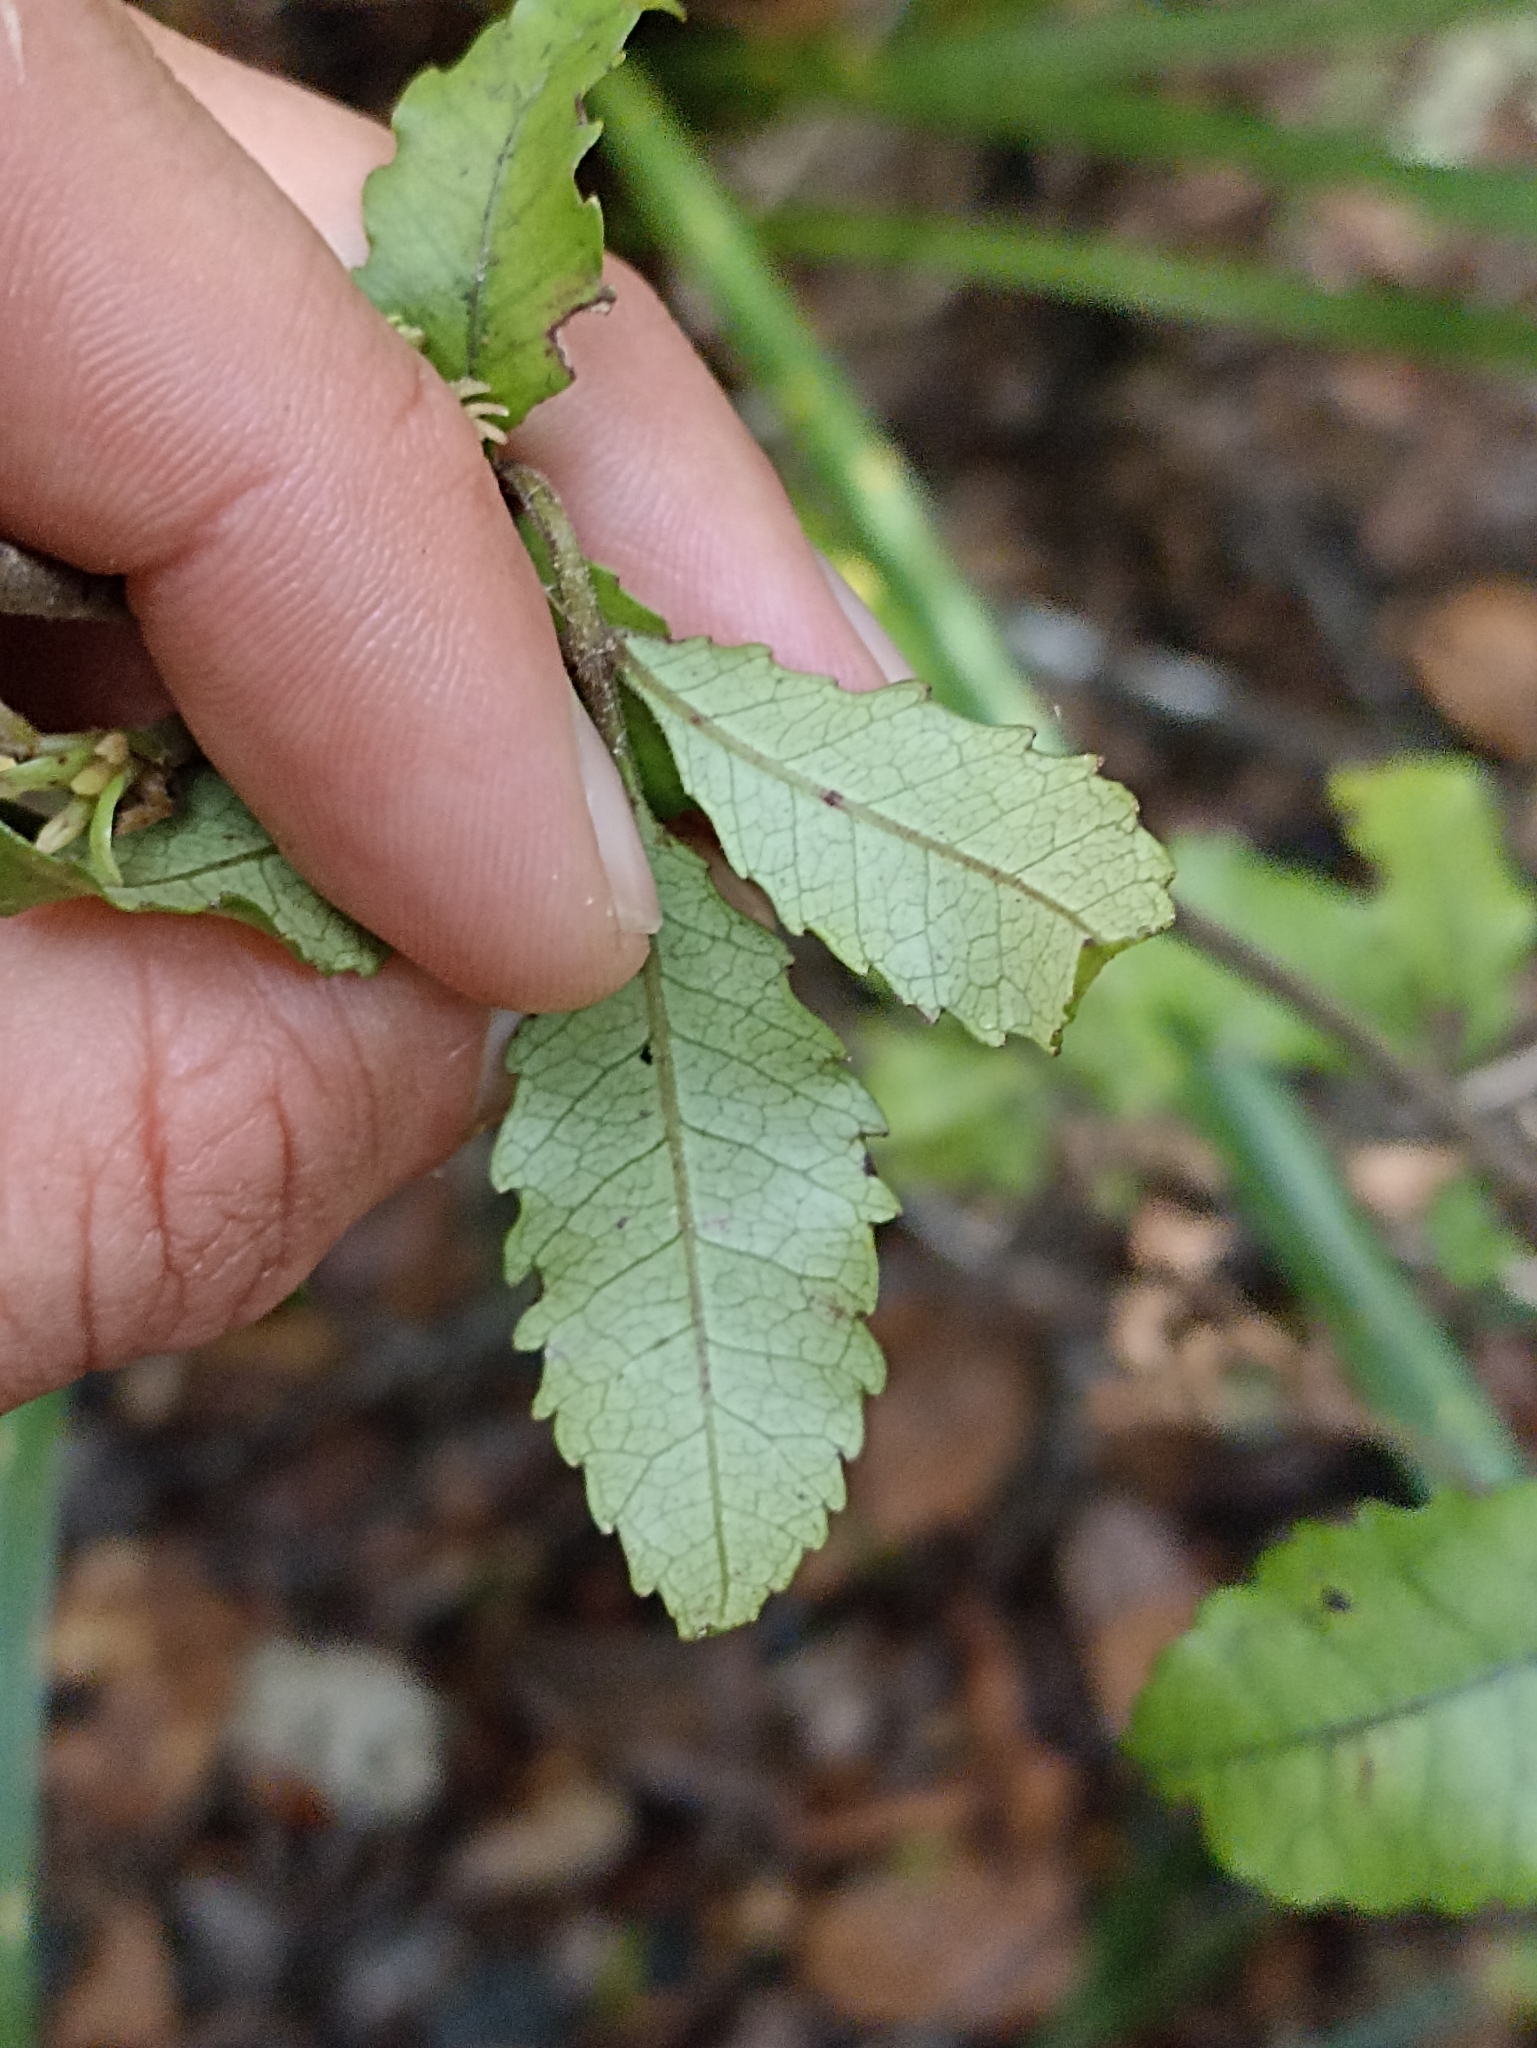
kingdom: Plantae
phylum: Tracheophyta
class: Magnoliopsida
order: Oxalidales
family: Cunoniaceae
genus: Pterophylla
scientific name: Pterophylla sylvicola
